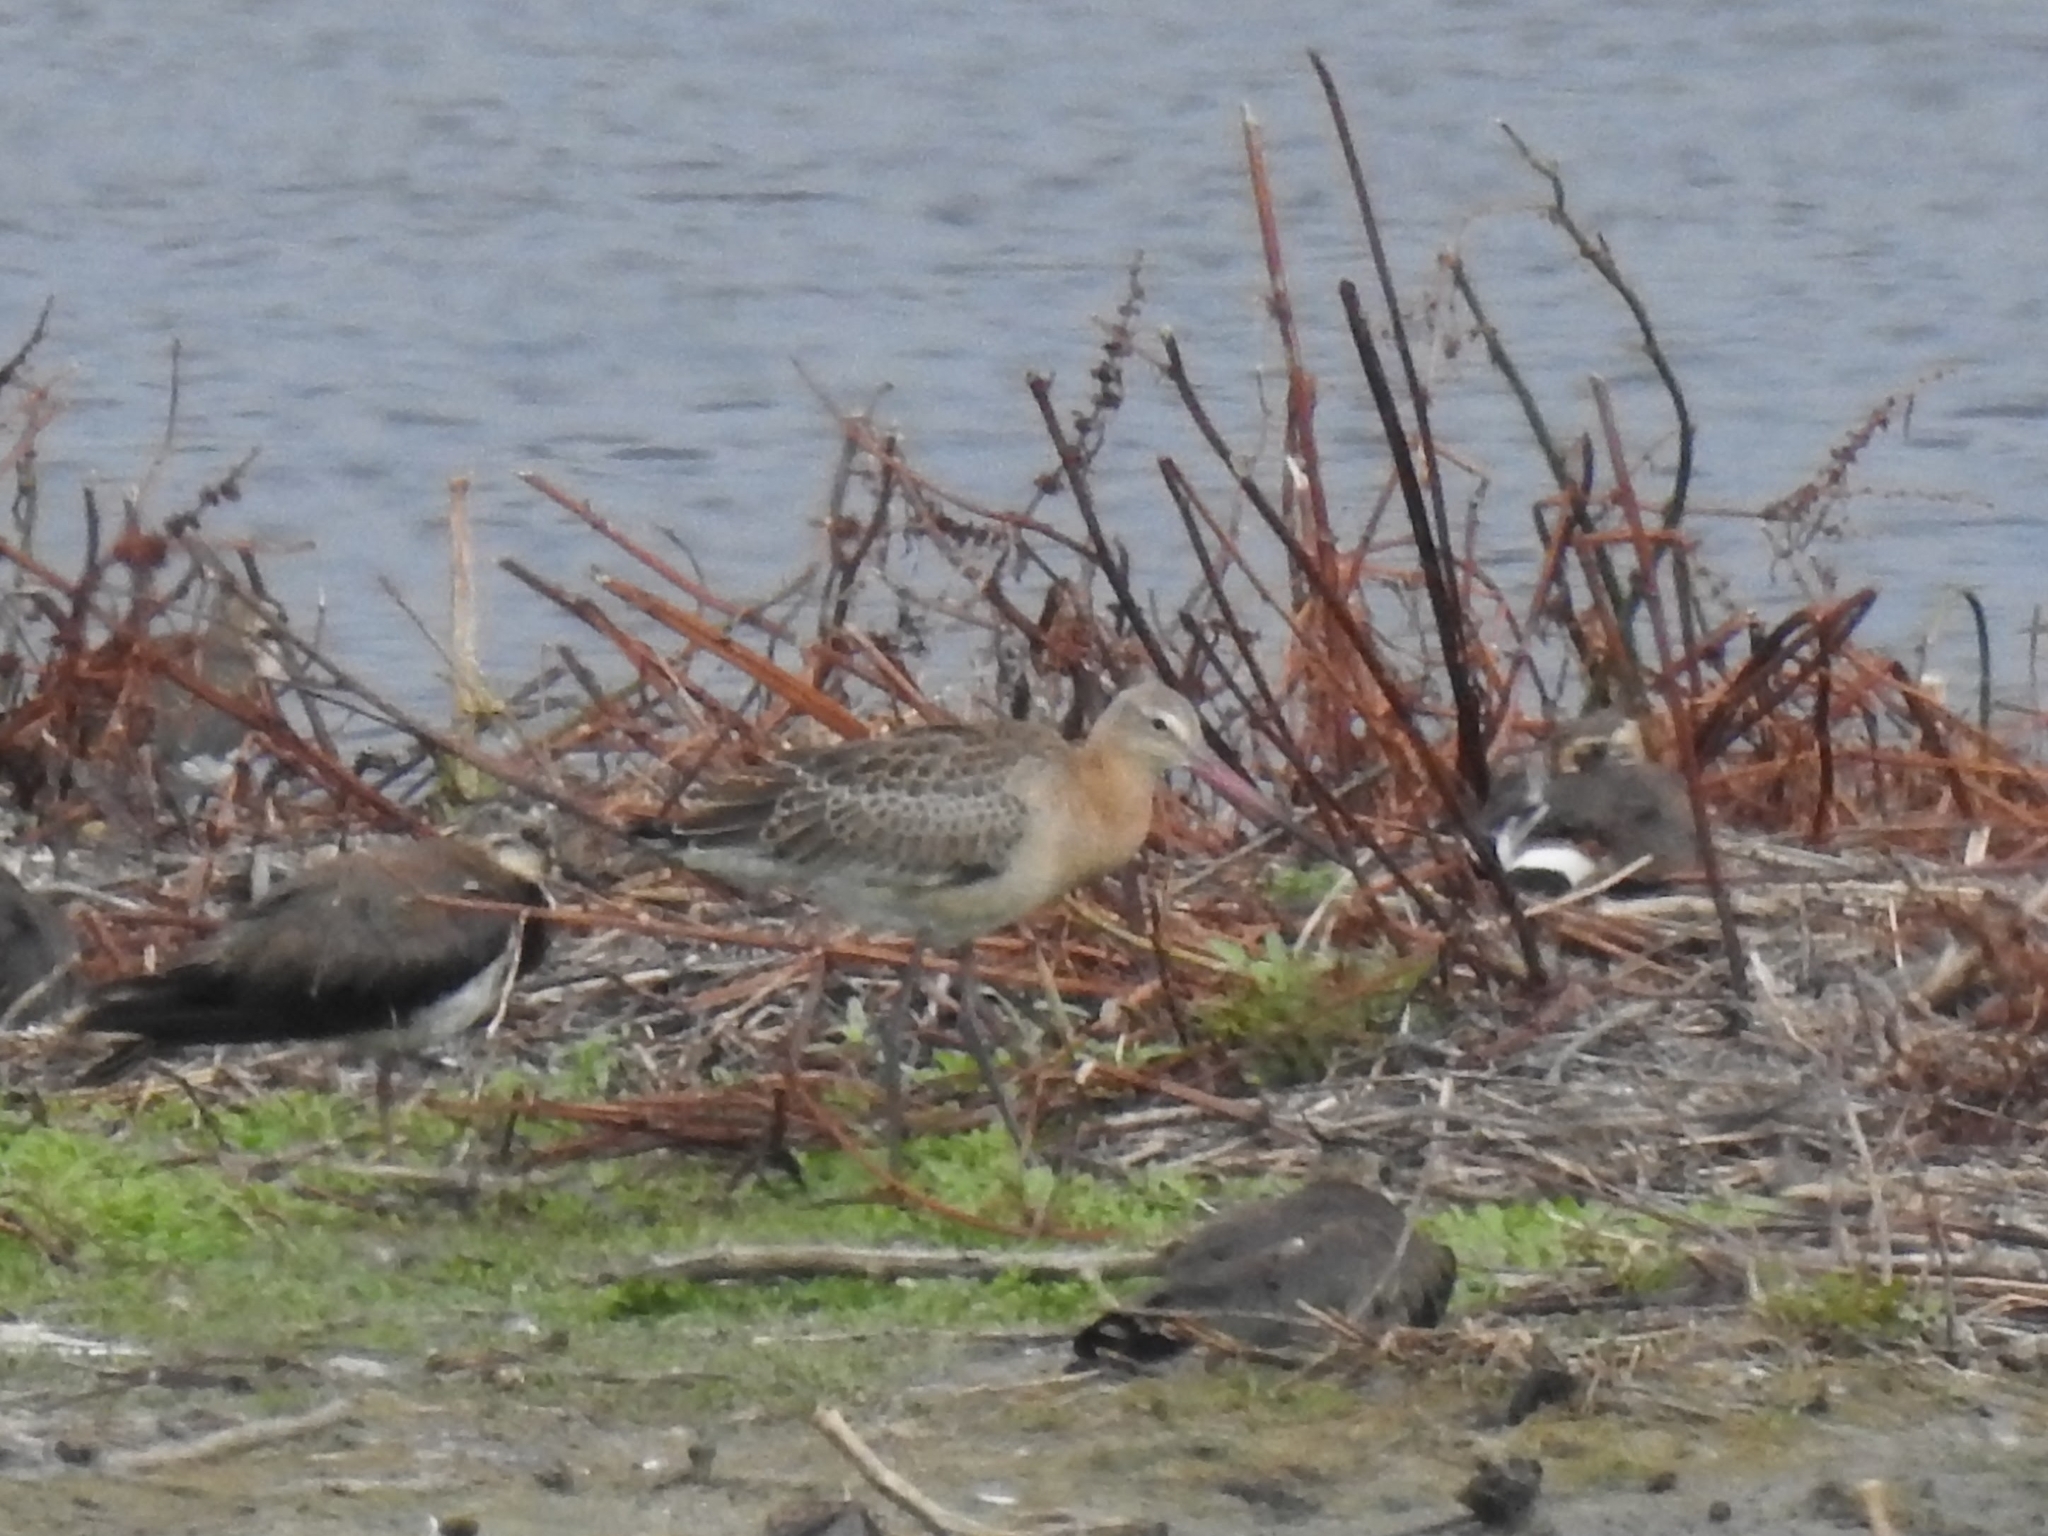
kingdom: Animalia
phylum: Chordata
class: Aves
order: Charadriiformes
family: Scolopacidae
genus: Limosa
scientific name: Limosa limosa
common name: Black-tailed godwit
